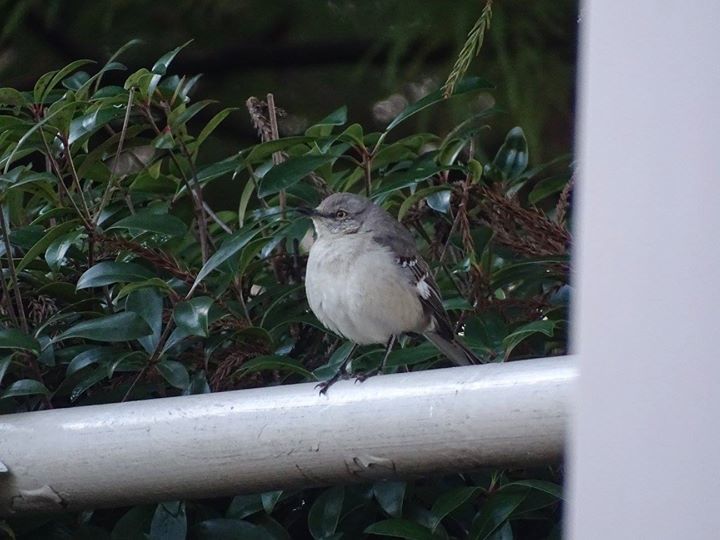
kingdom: Animalia
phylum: Chordata
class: Aves
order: Passeriformes
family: Mimidae
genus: Mimus
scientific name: Mimus polyglottos
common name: Northern mockingbird
